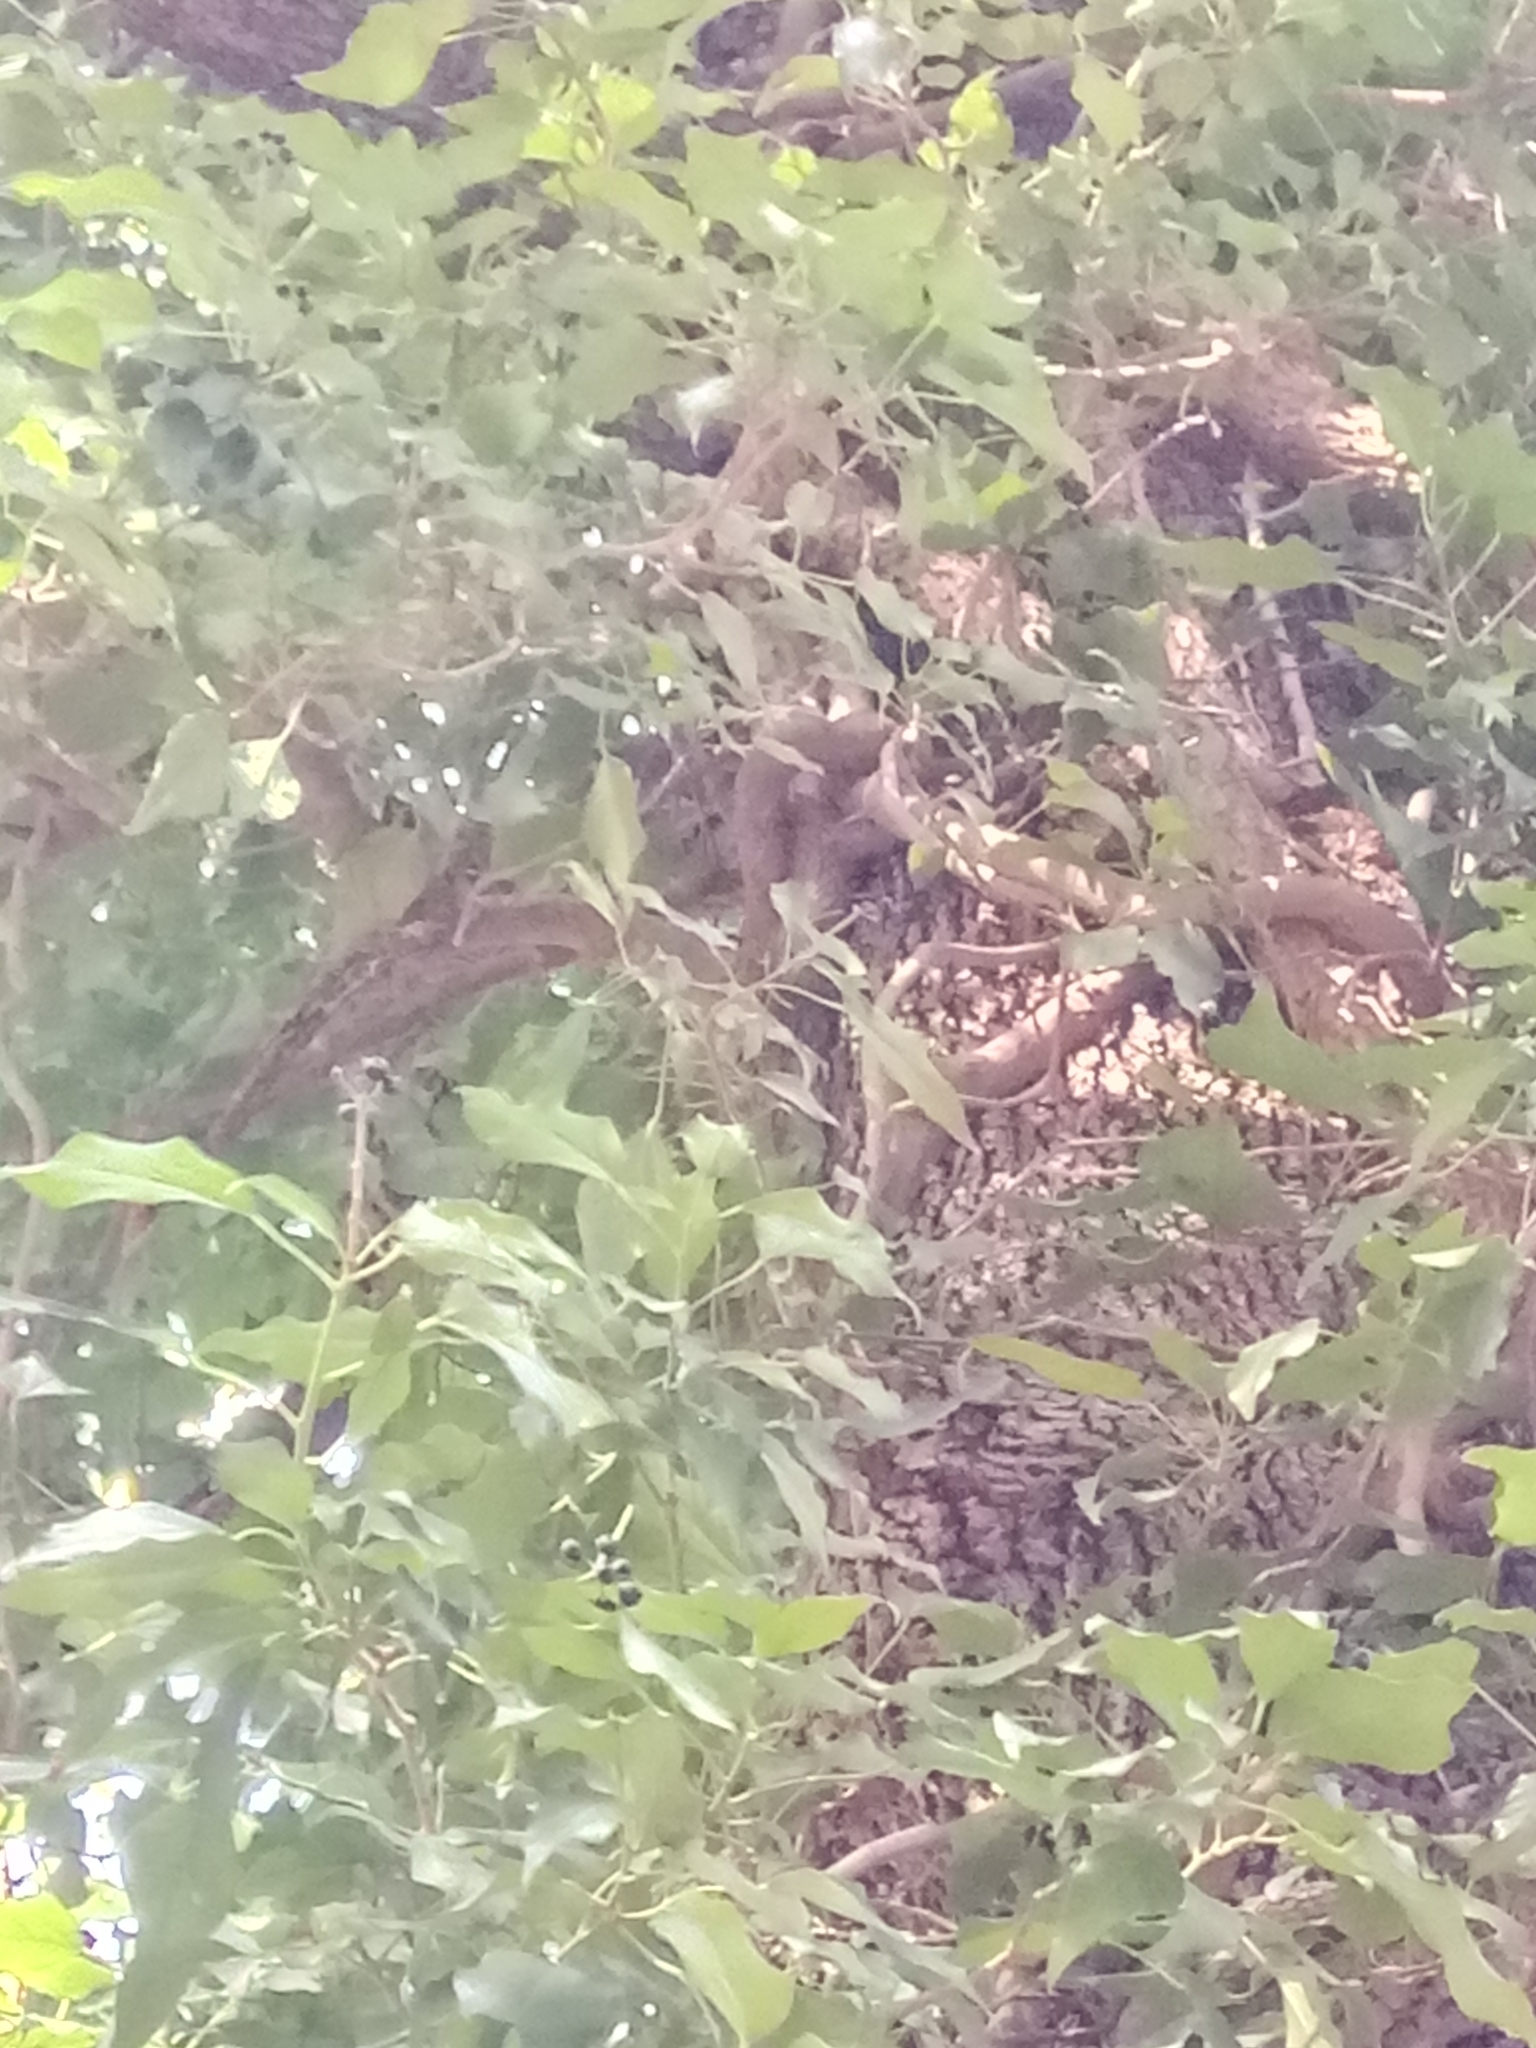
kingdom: Plantae
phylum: Tracheophyta
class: Magnoliopsida
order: Apiales
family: Araliaceae
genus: Hedera
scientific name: Hedera algeriensis
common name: Algerian ivy
